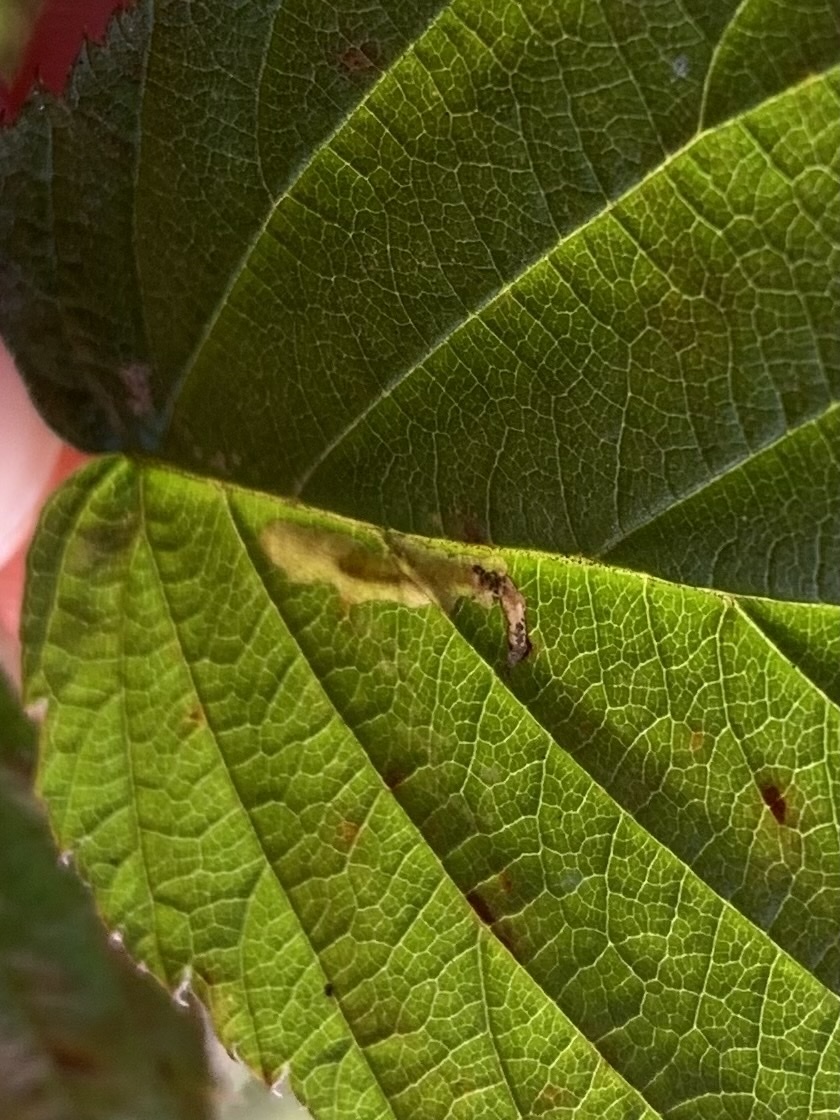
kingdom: Animalia
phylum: Arthropoda
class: Insecta
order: Lepidoptera
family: Tischeriidae
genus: Coptotriche
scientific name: Coptotriche aenea
